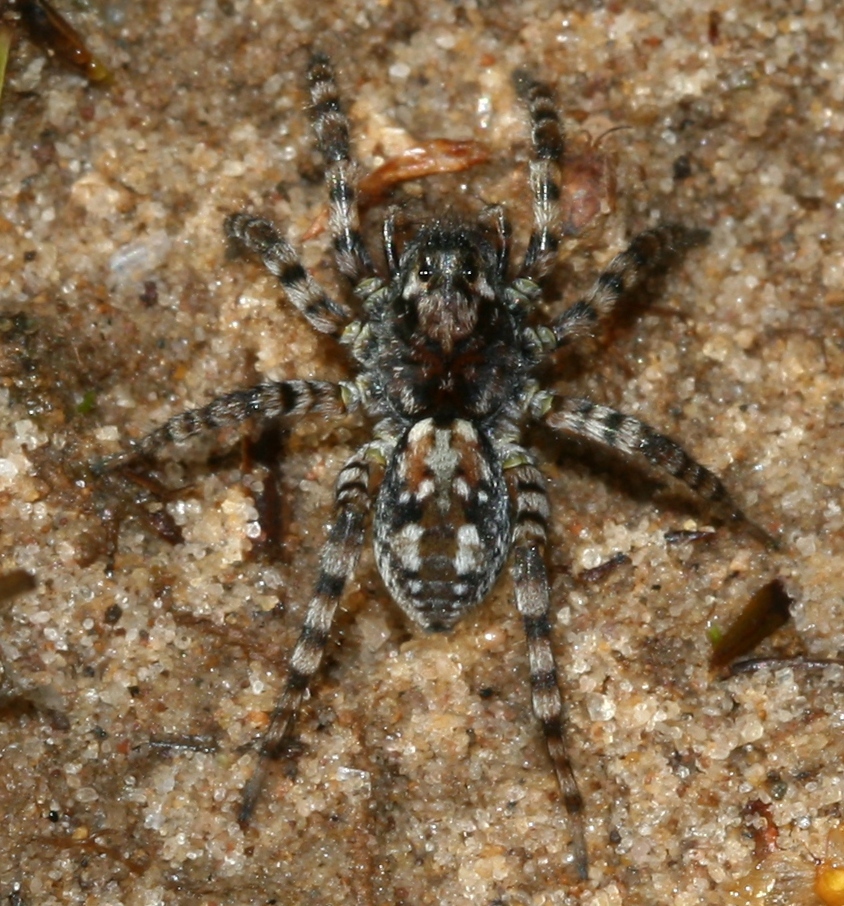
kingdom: Animalia
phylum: Arthropoda
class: Arachnida
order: Araneae
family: Lycosidae
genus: Arctosa
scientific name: Arctosa perita
